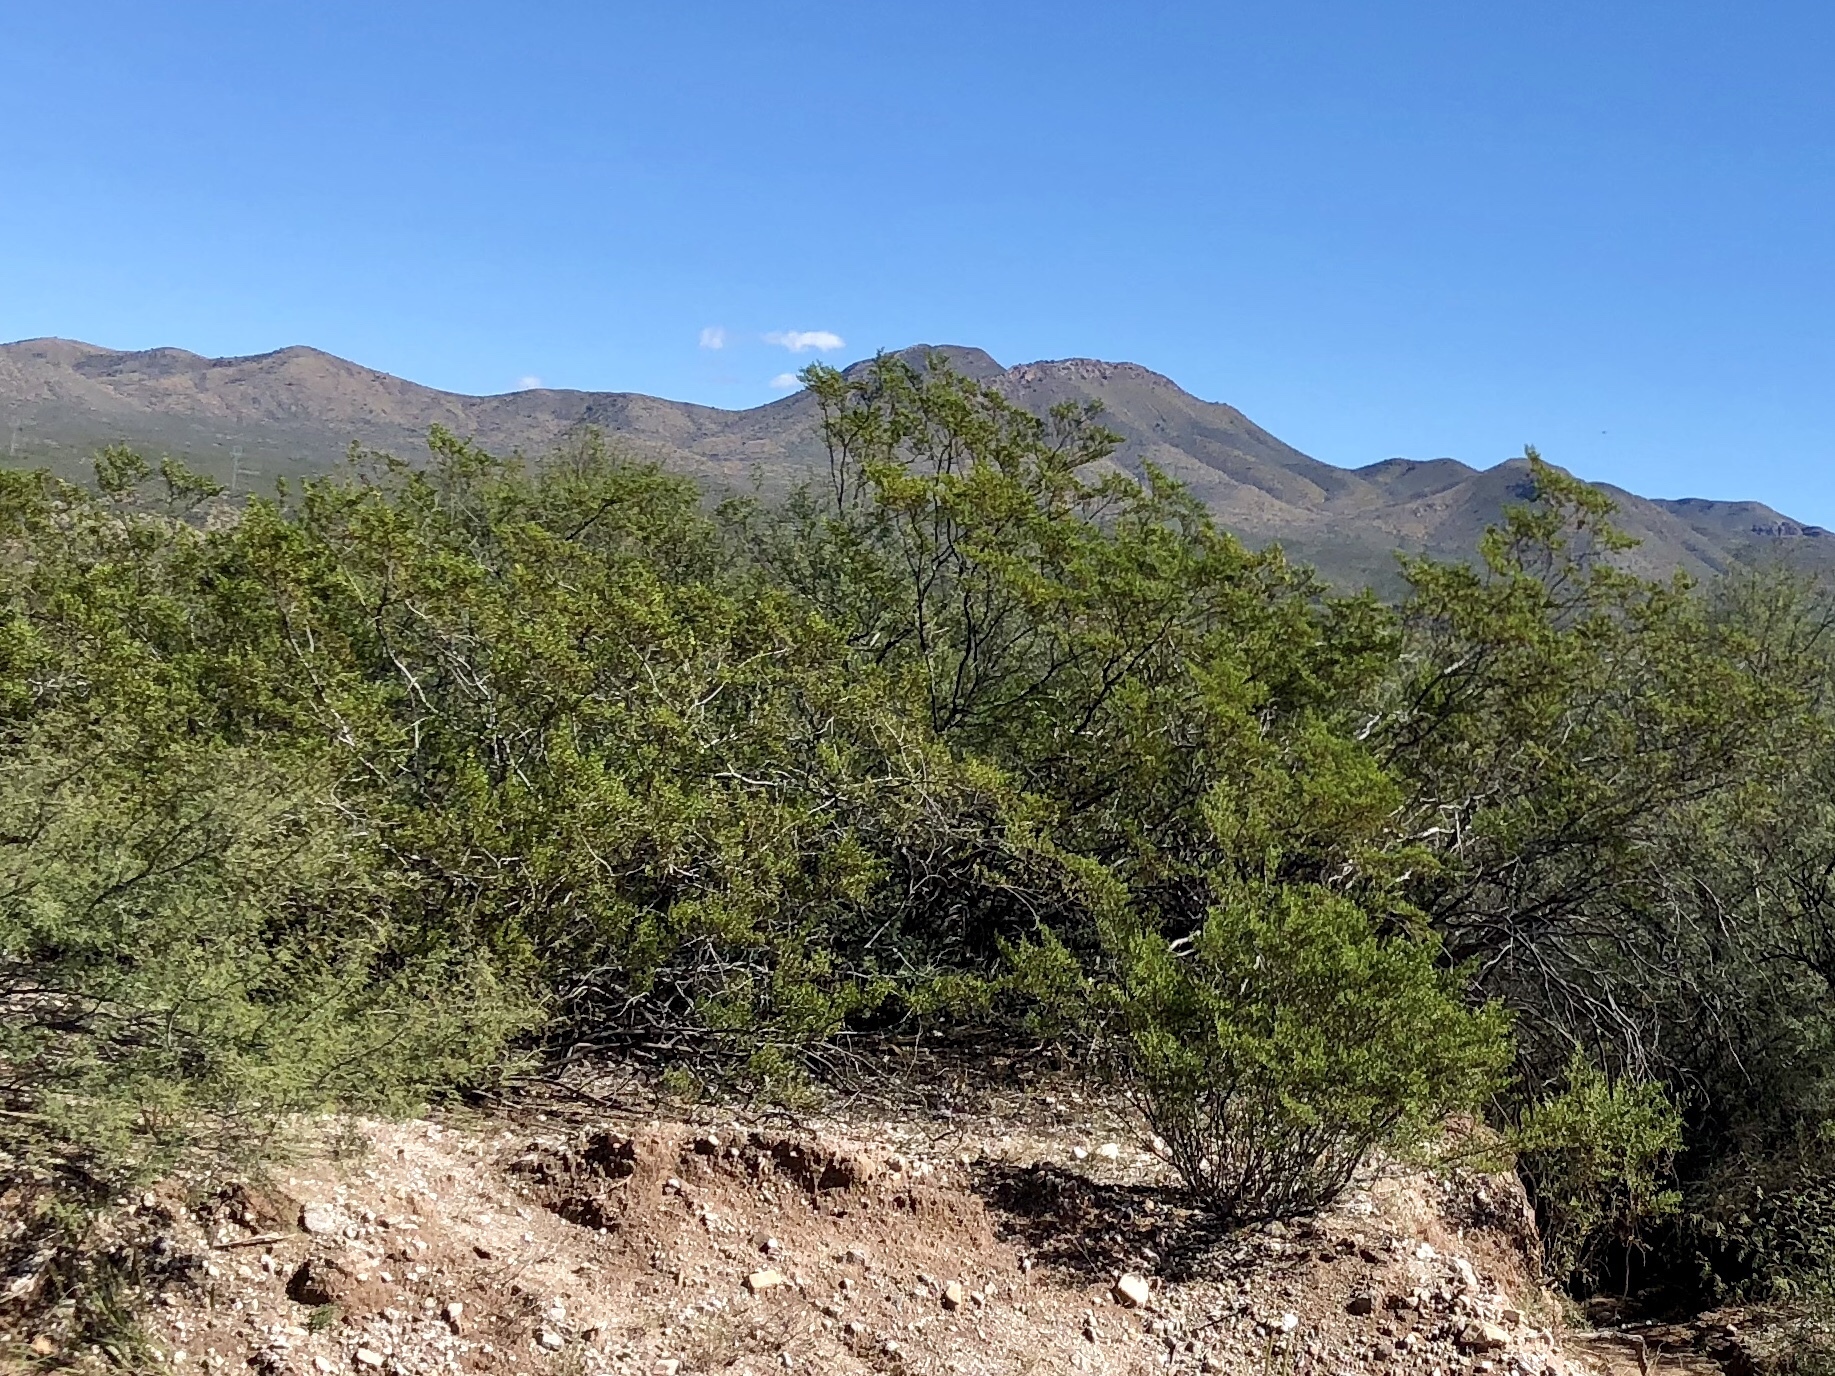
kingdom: Plantae
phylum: Tracheophyta
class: Magnoliopsida
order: Zygophyllales
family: Zygophyllaceae
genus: Larrea
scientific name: Larrea tridentata
